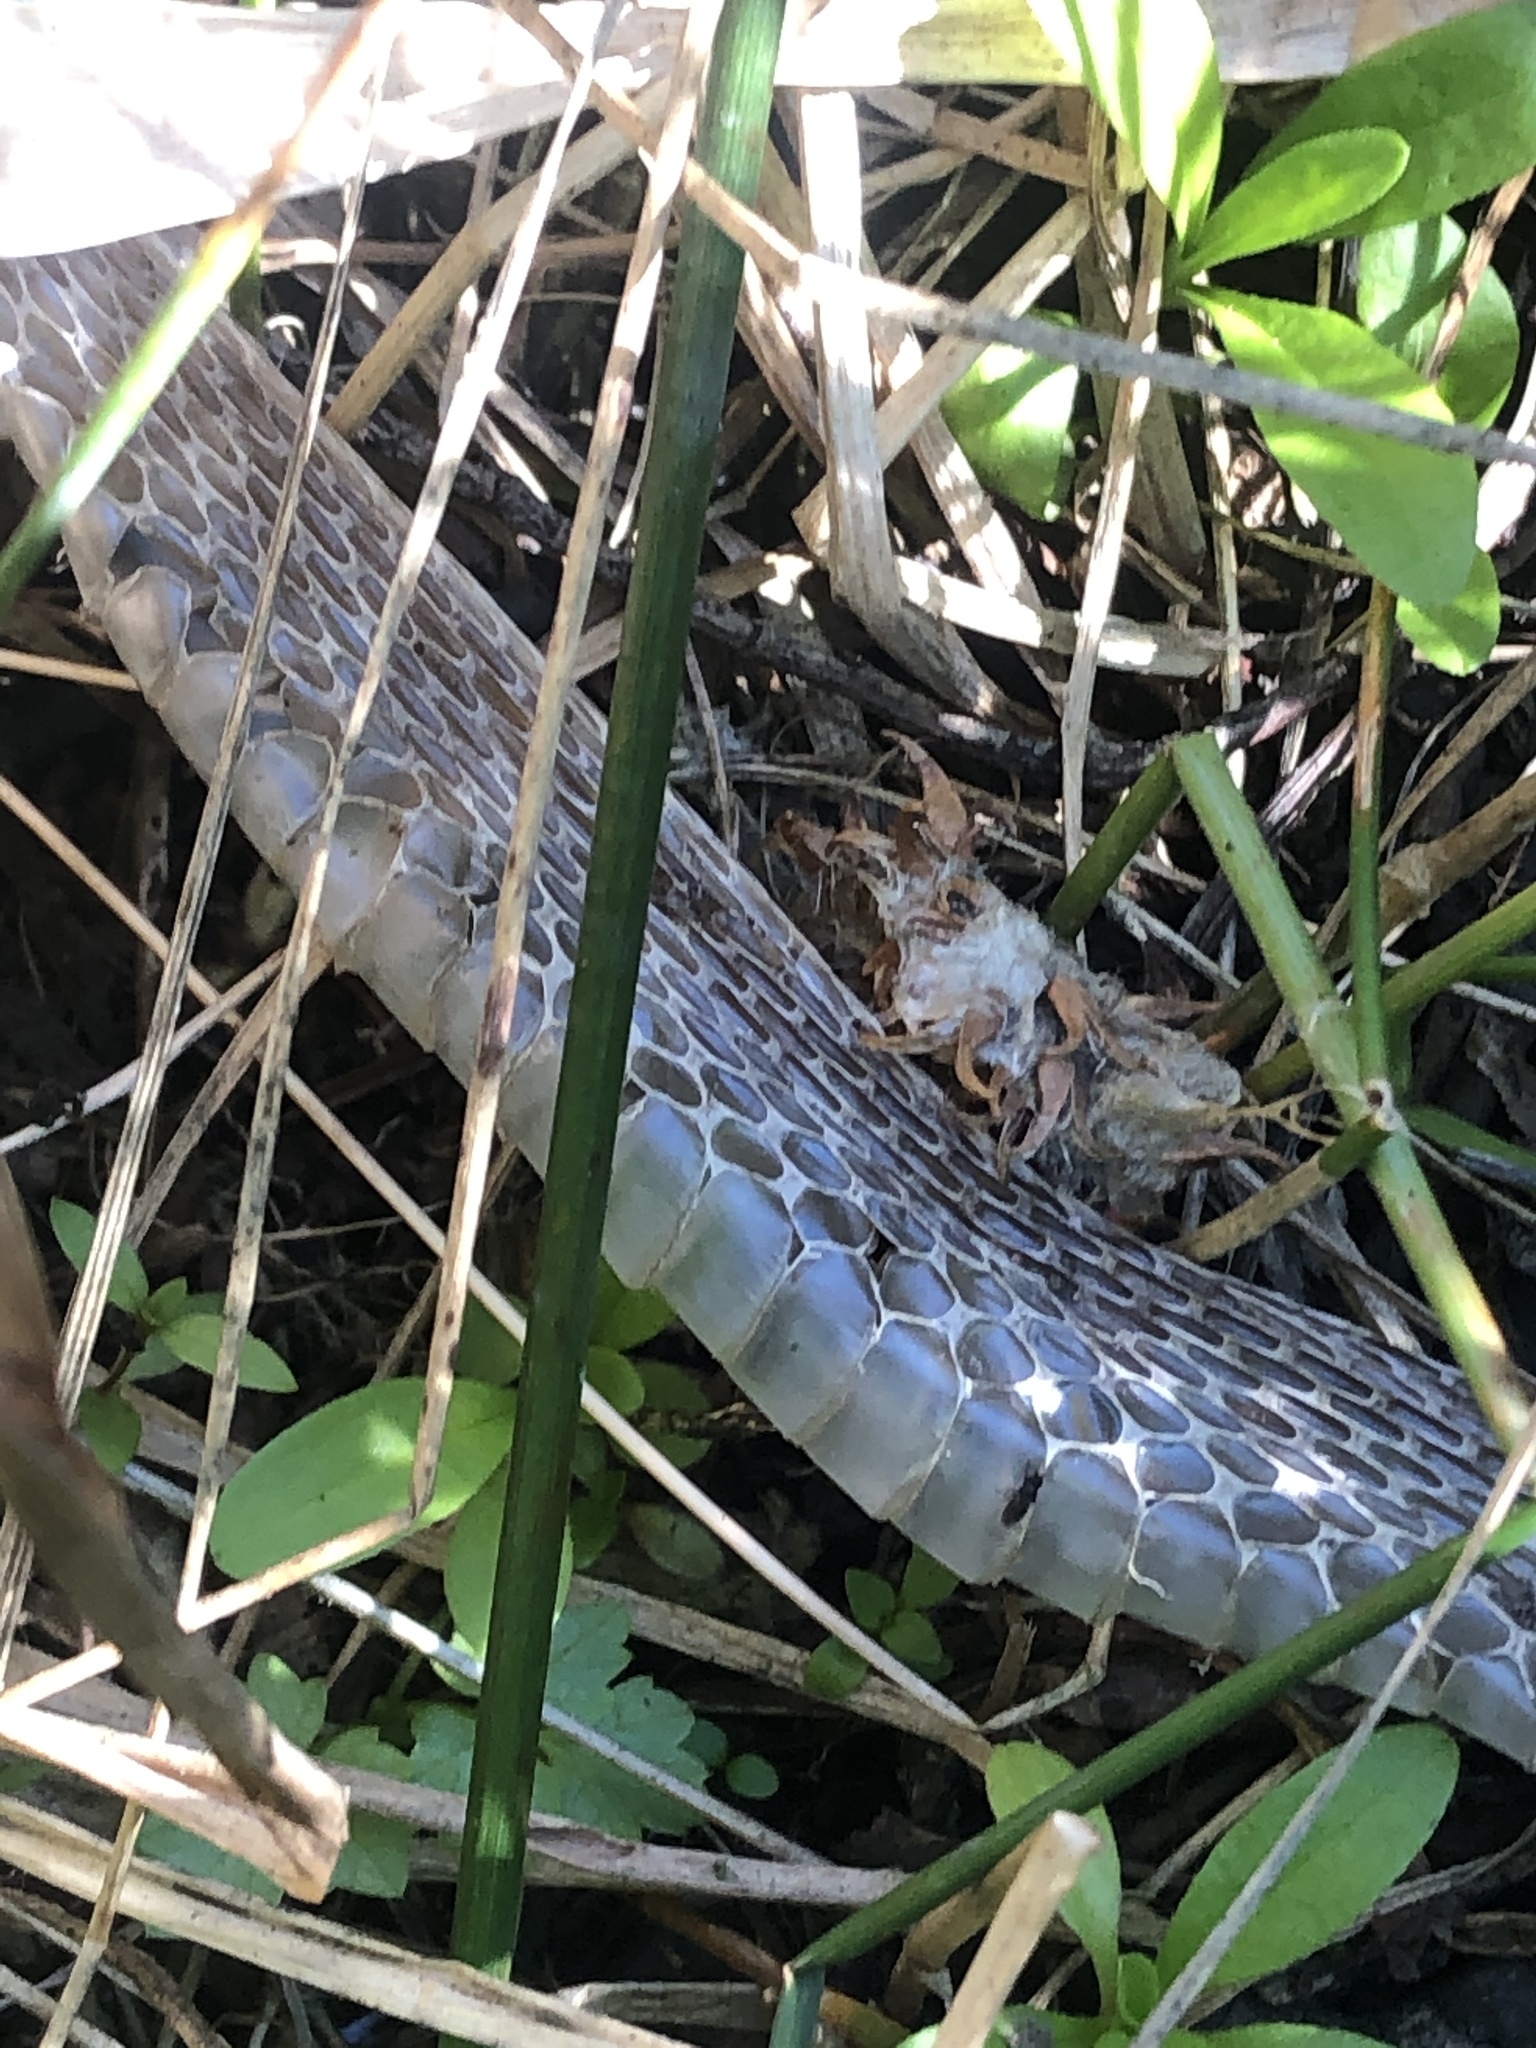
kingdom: Animalia
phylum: Chordata
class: Squamata
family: Colubridae
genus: Thamnophis
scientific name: Thamnophis
